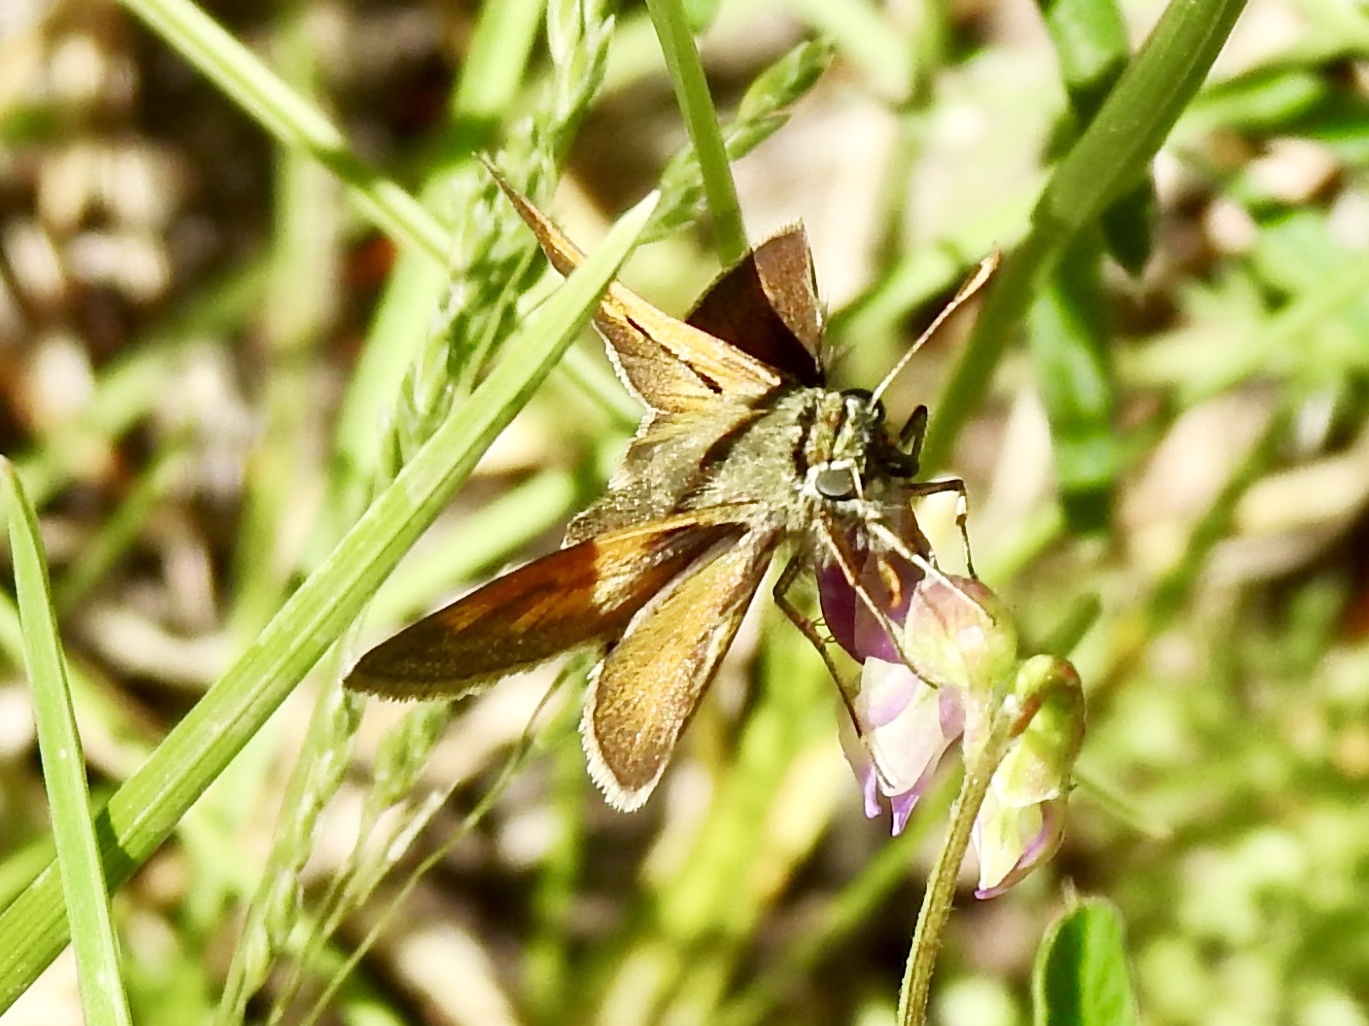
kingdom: Animalia
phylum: Arthropoda
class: Insecta
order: Lepidoptera
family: Hesperiidae
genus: Polites
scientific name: Polites themistocles
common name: Tawny-edged skipper
